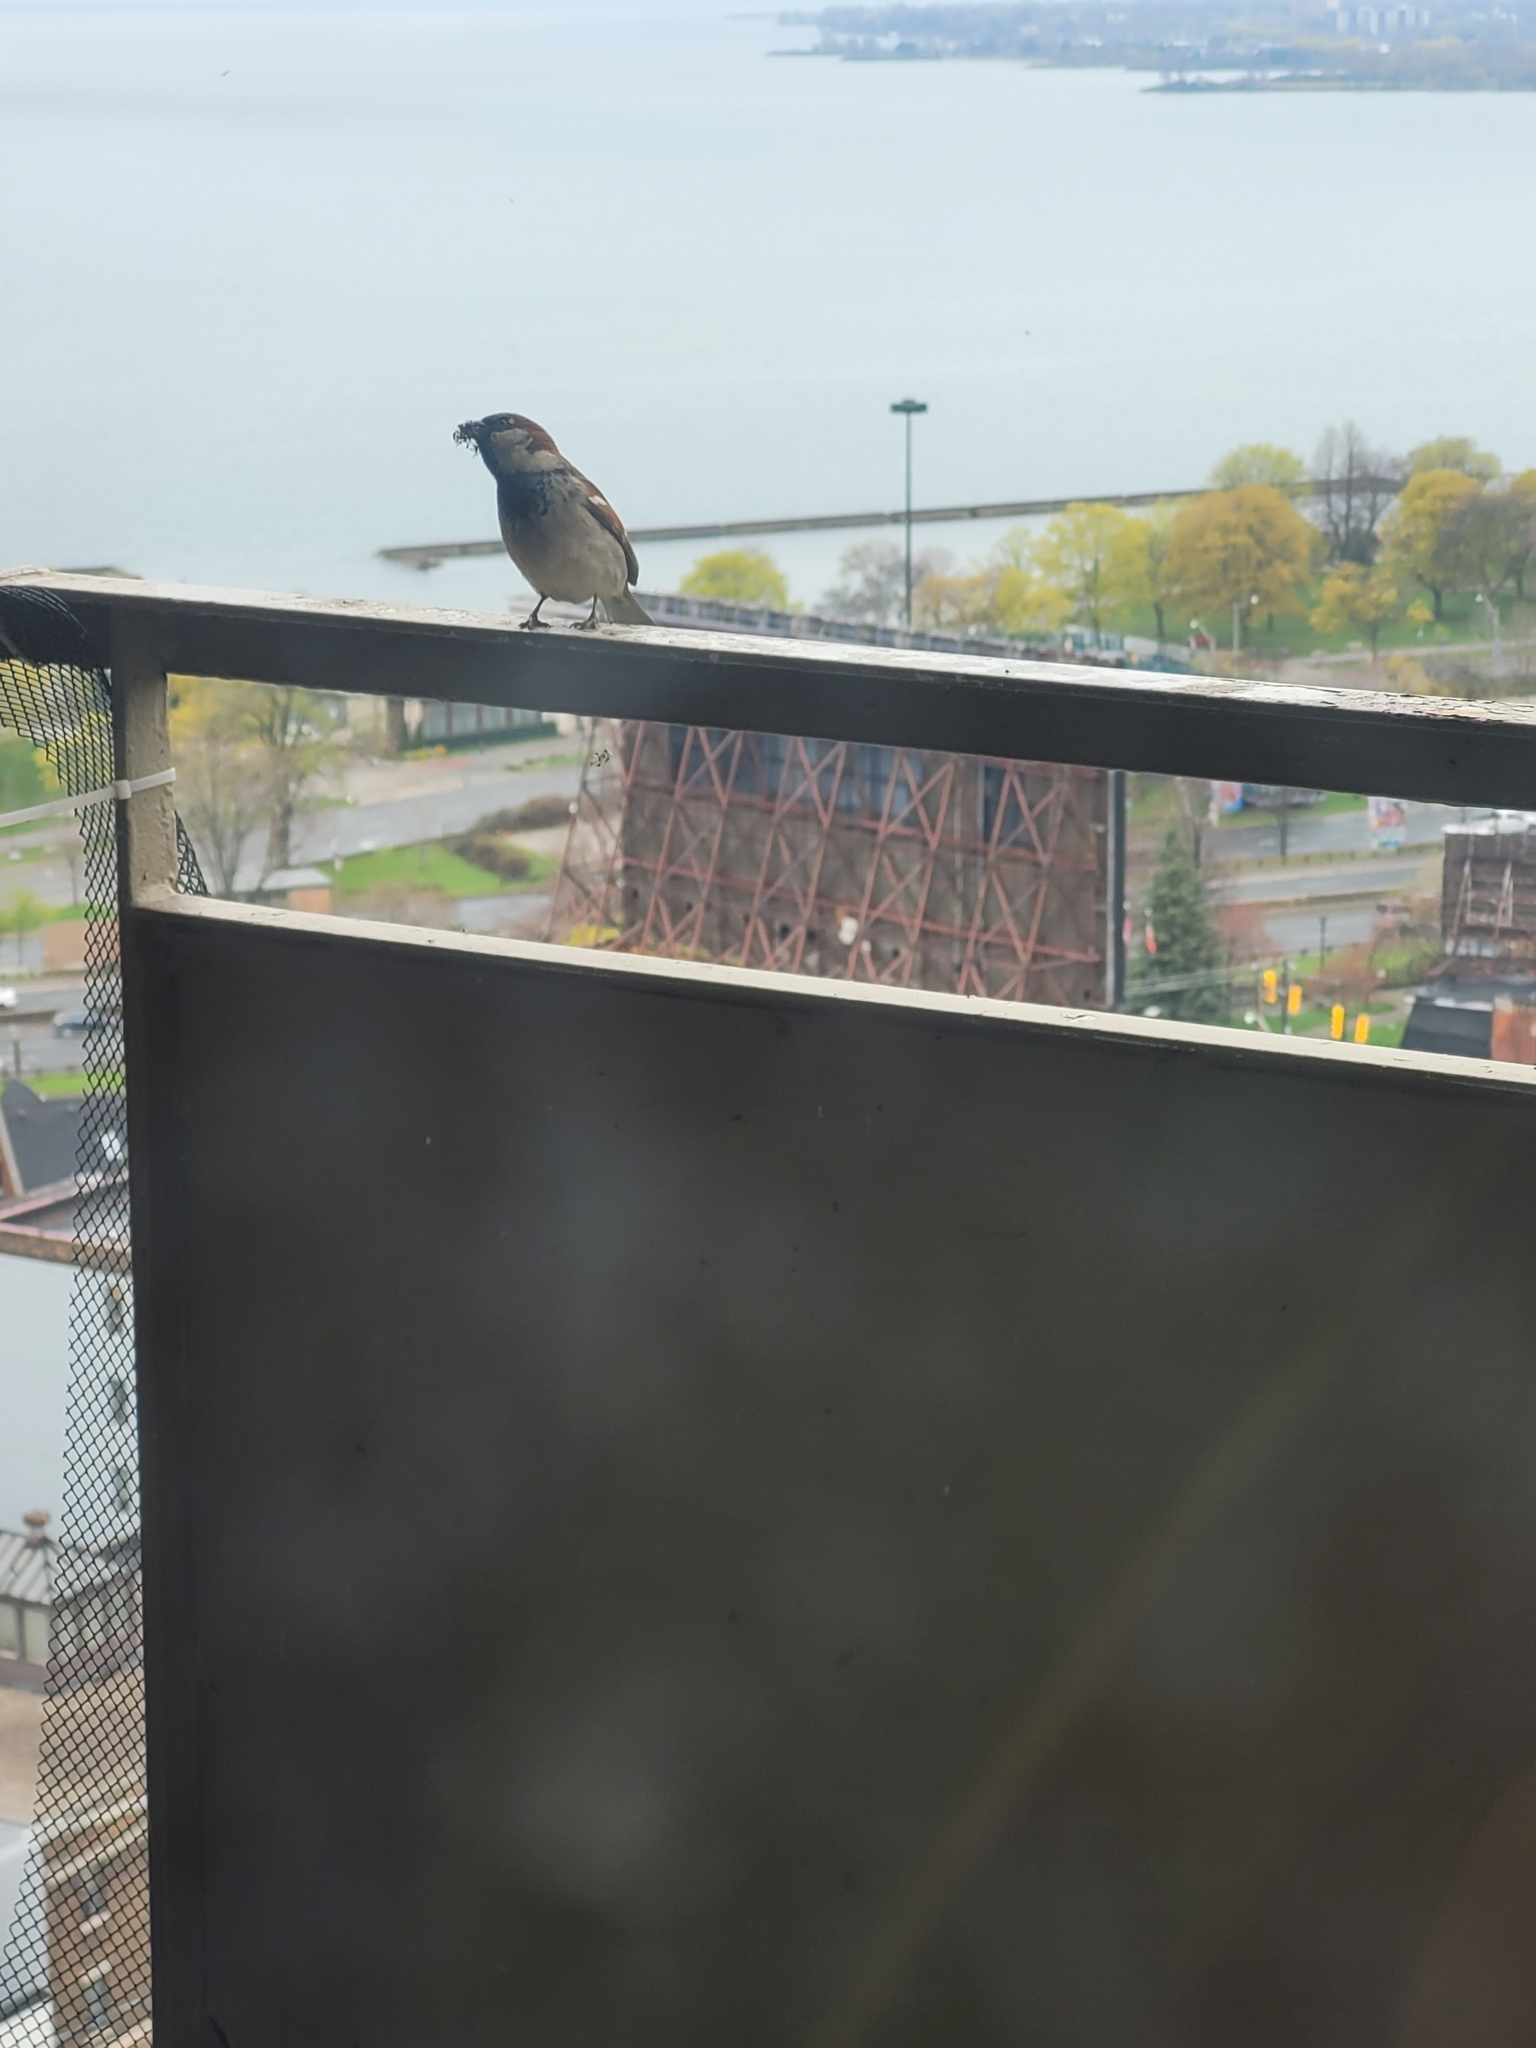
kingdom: Animalia
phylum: Chordata
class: Aves
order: Passeriformes
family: Passeridae
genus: Passer
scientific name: Passer domesticus
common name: House sparrow
